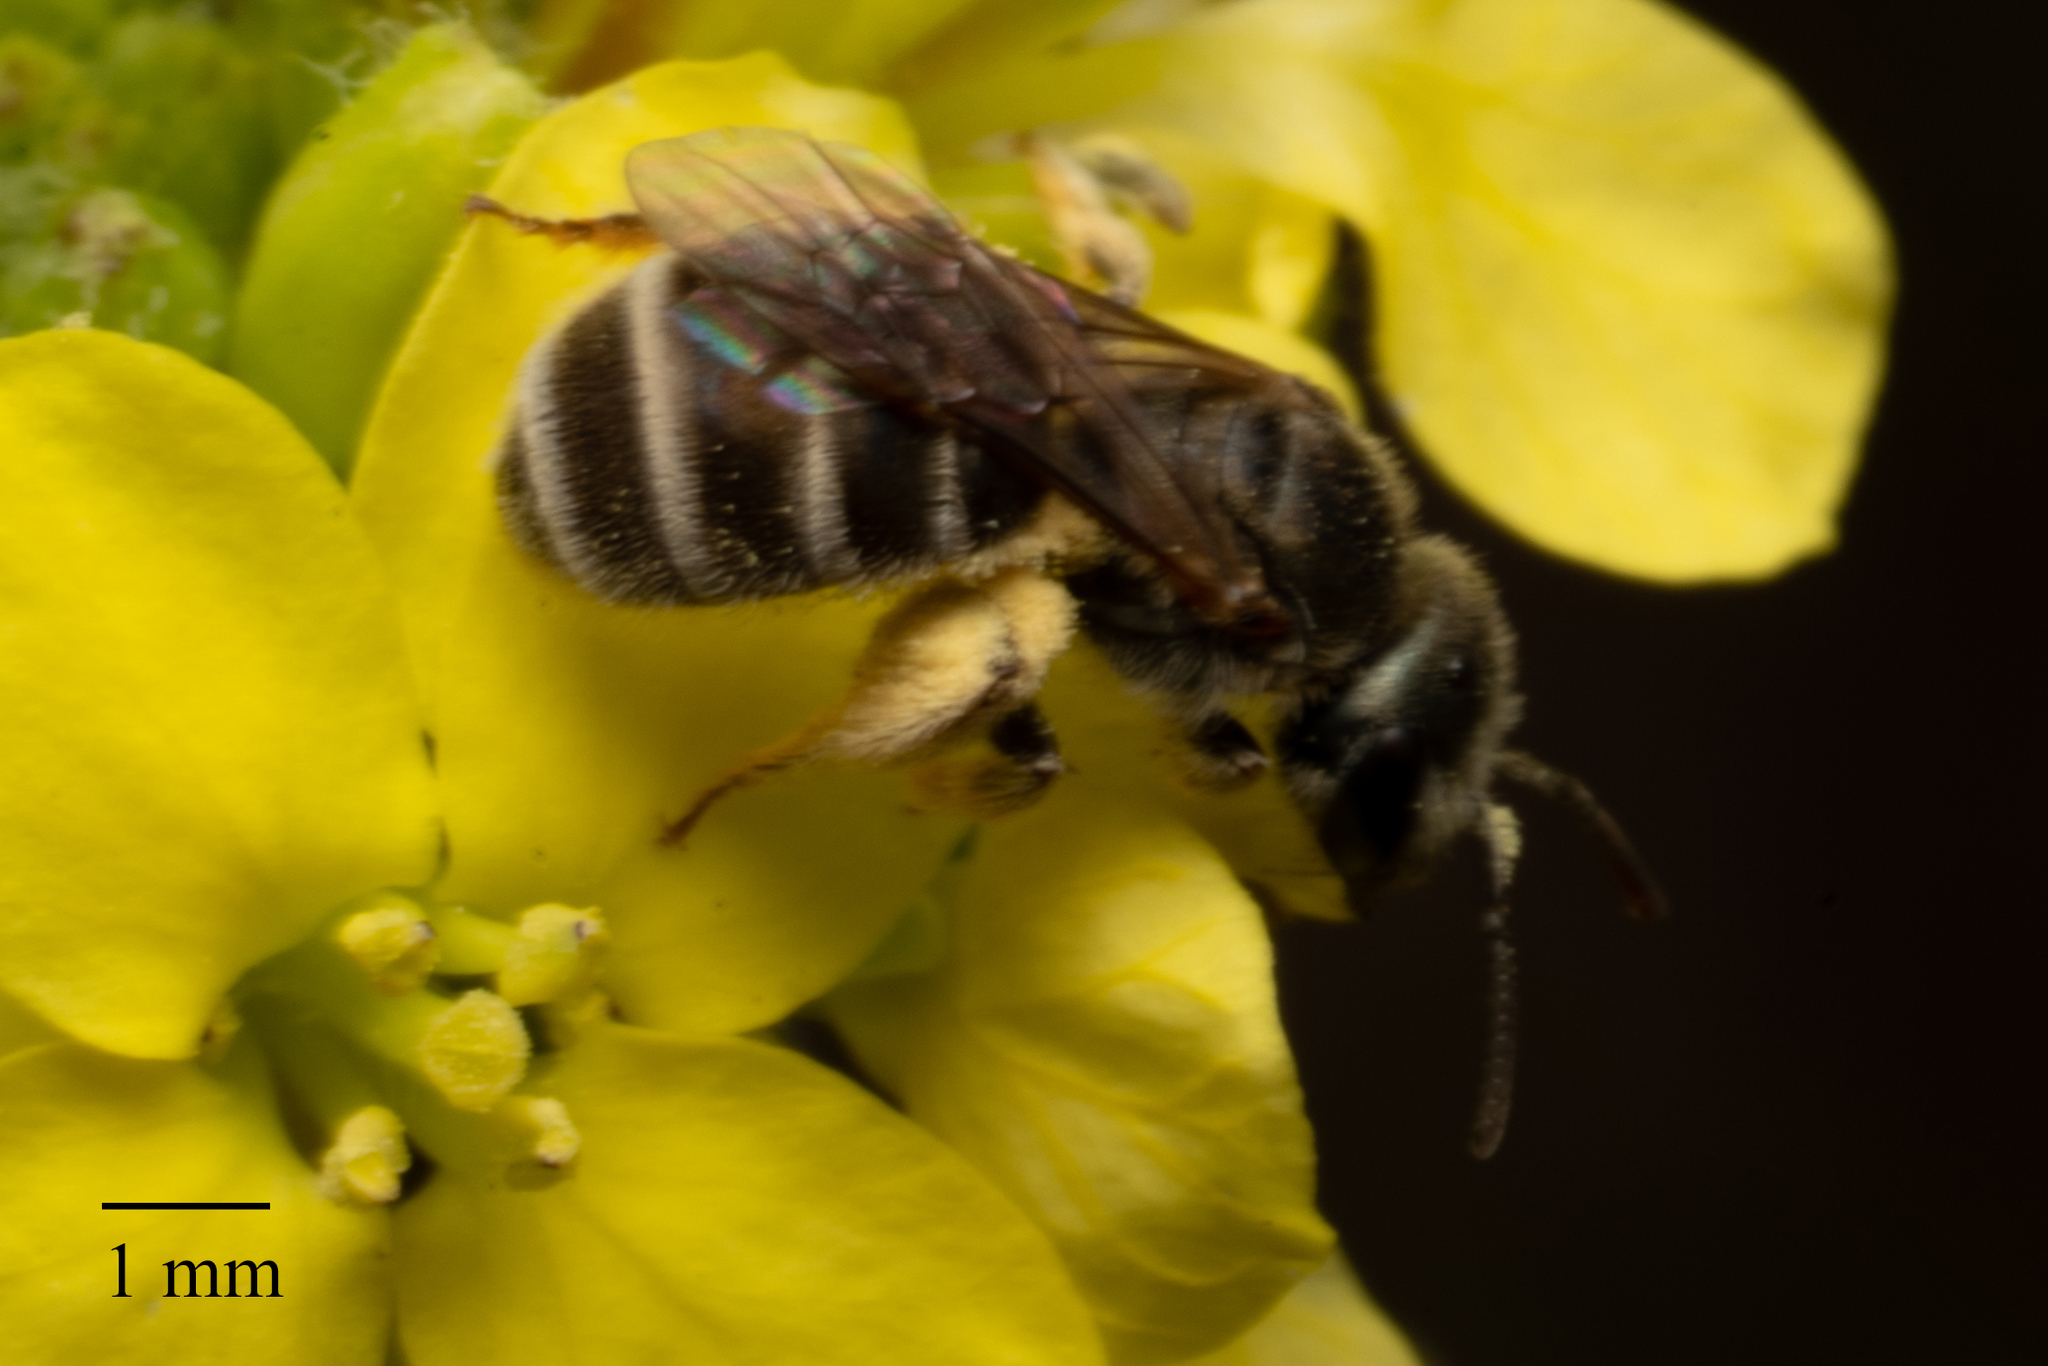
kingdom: Animalia
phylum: Arthropoda
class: Insecta
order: Hymenoptera
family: Halictidae
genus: Halictus
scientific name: Halictus tripartitus
